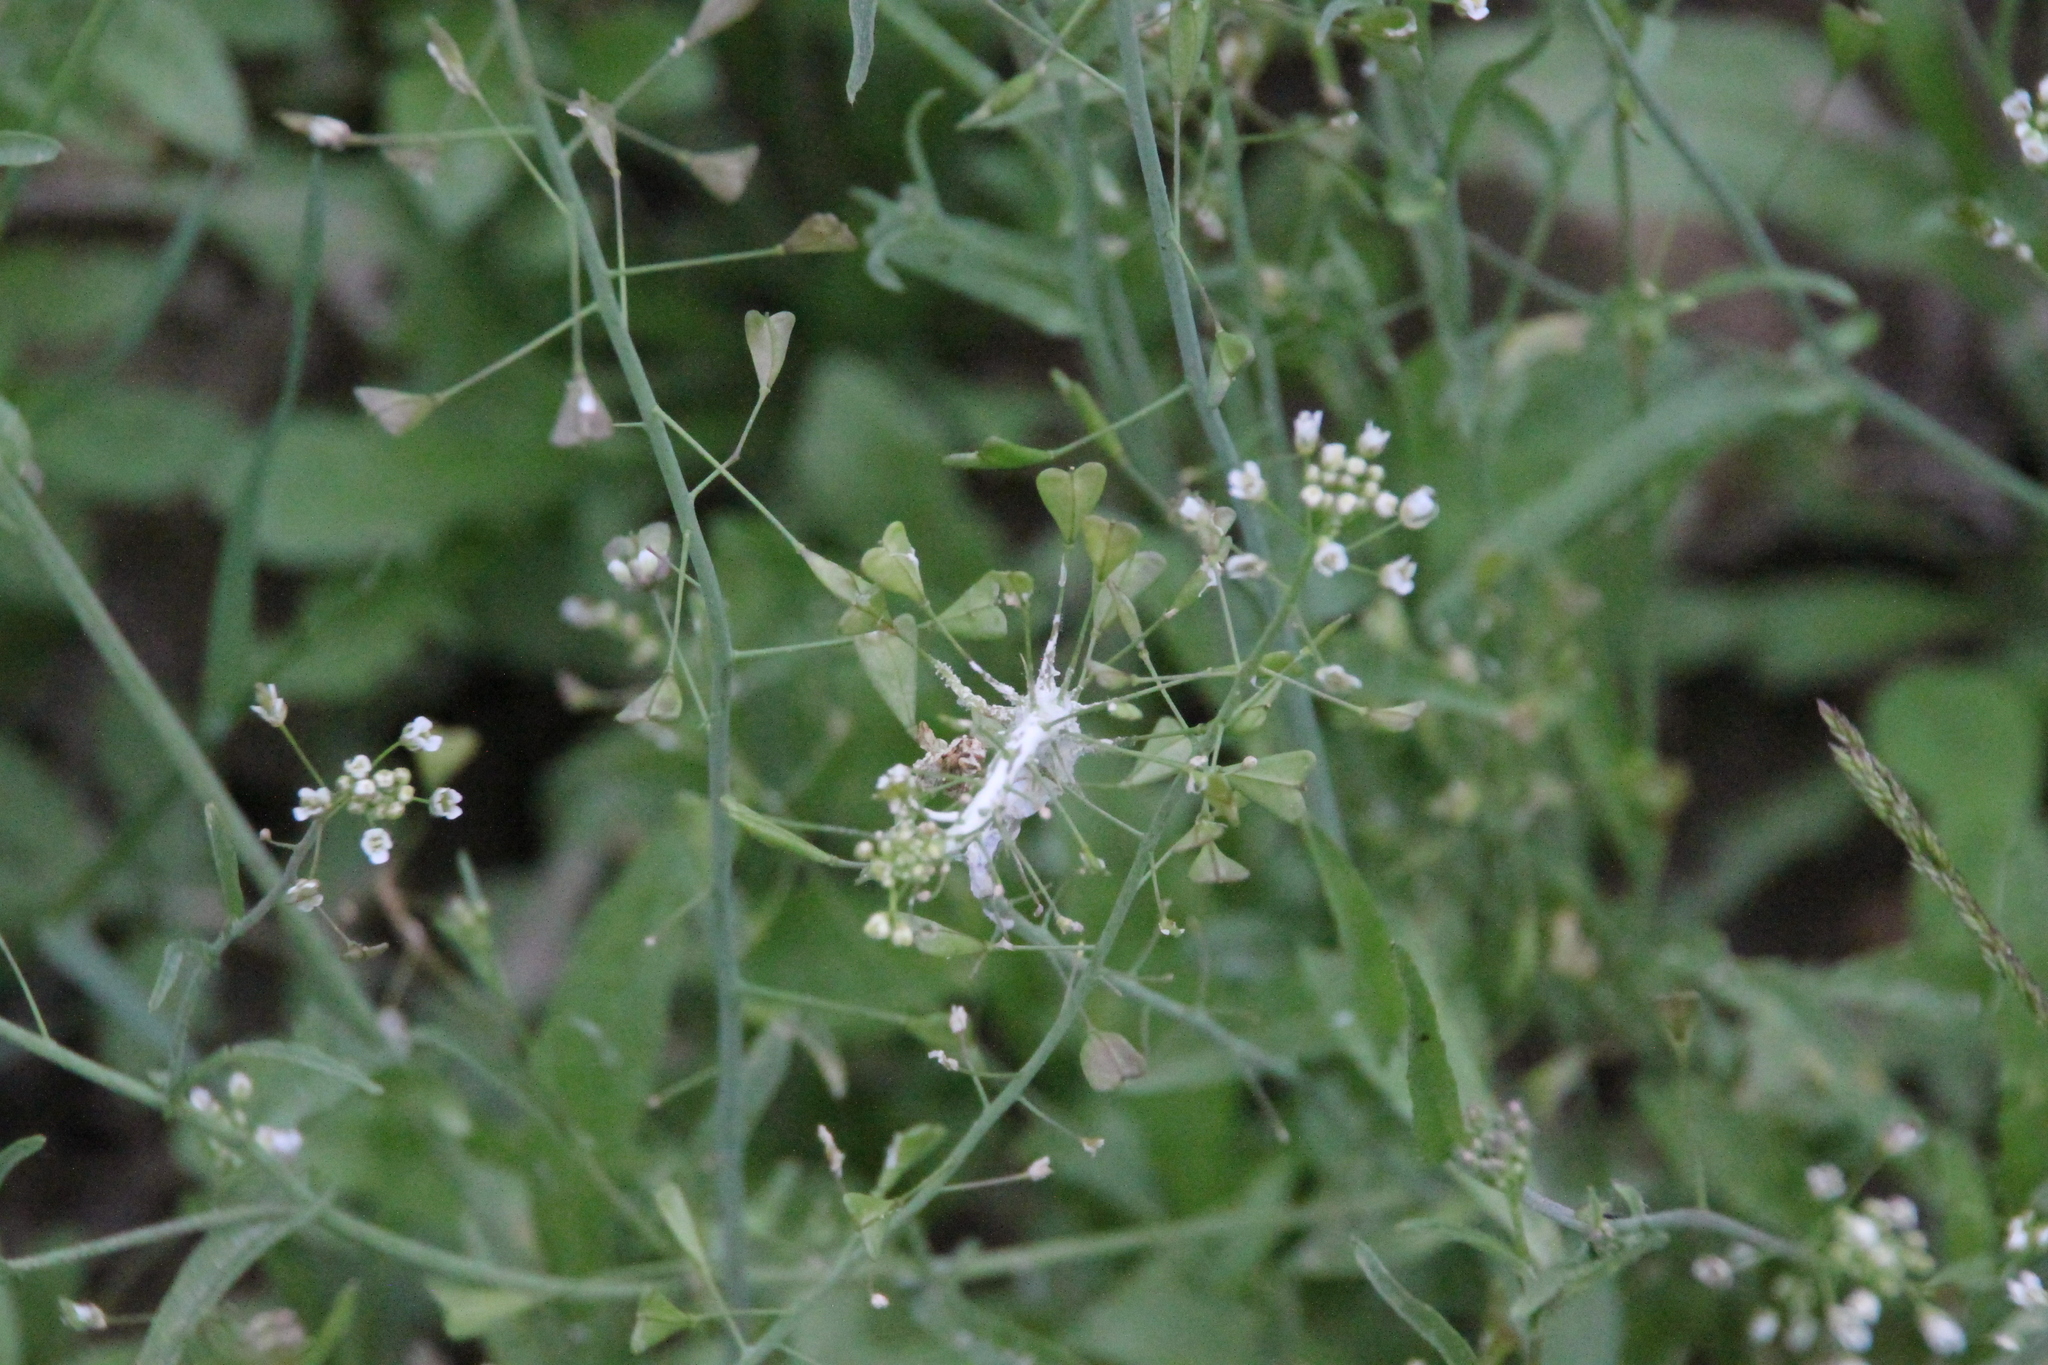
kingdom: Plantae
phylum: Tracheophyta
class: Magnoliopsida
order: Brassicales
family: Brassicaceae
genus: Capsella
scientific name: Capsella bursa-pastoris
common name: Shepherd's purse
